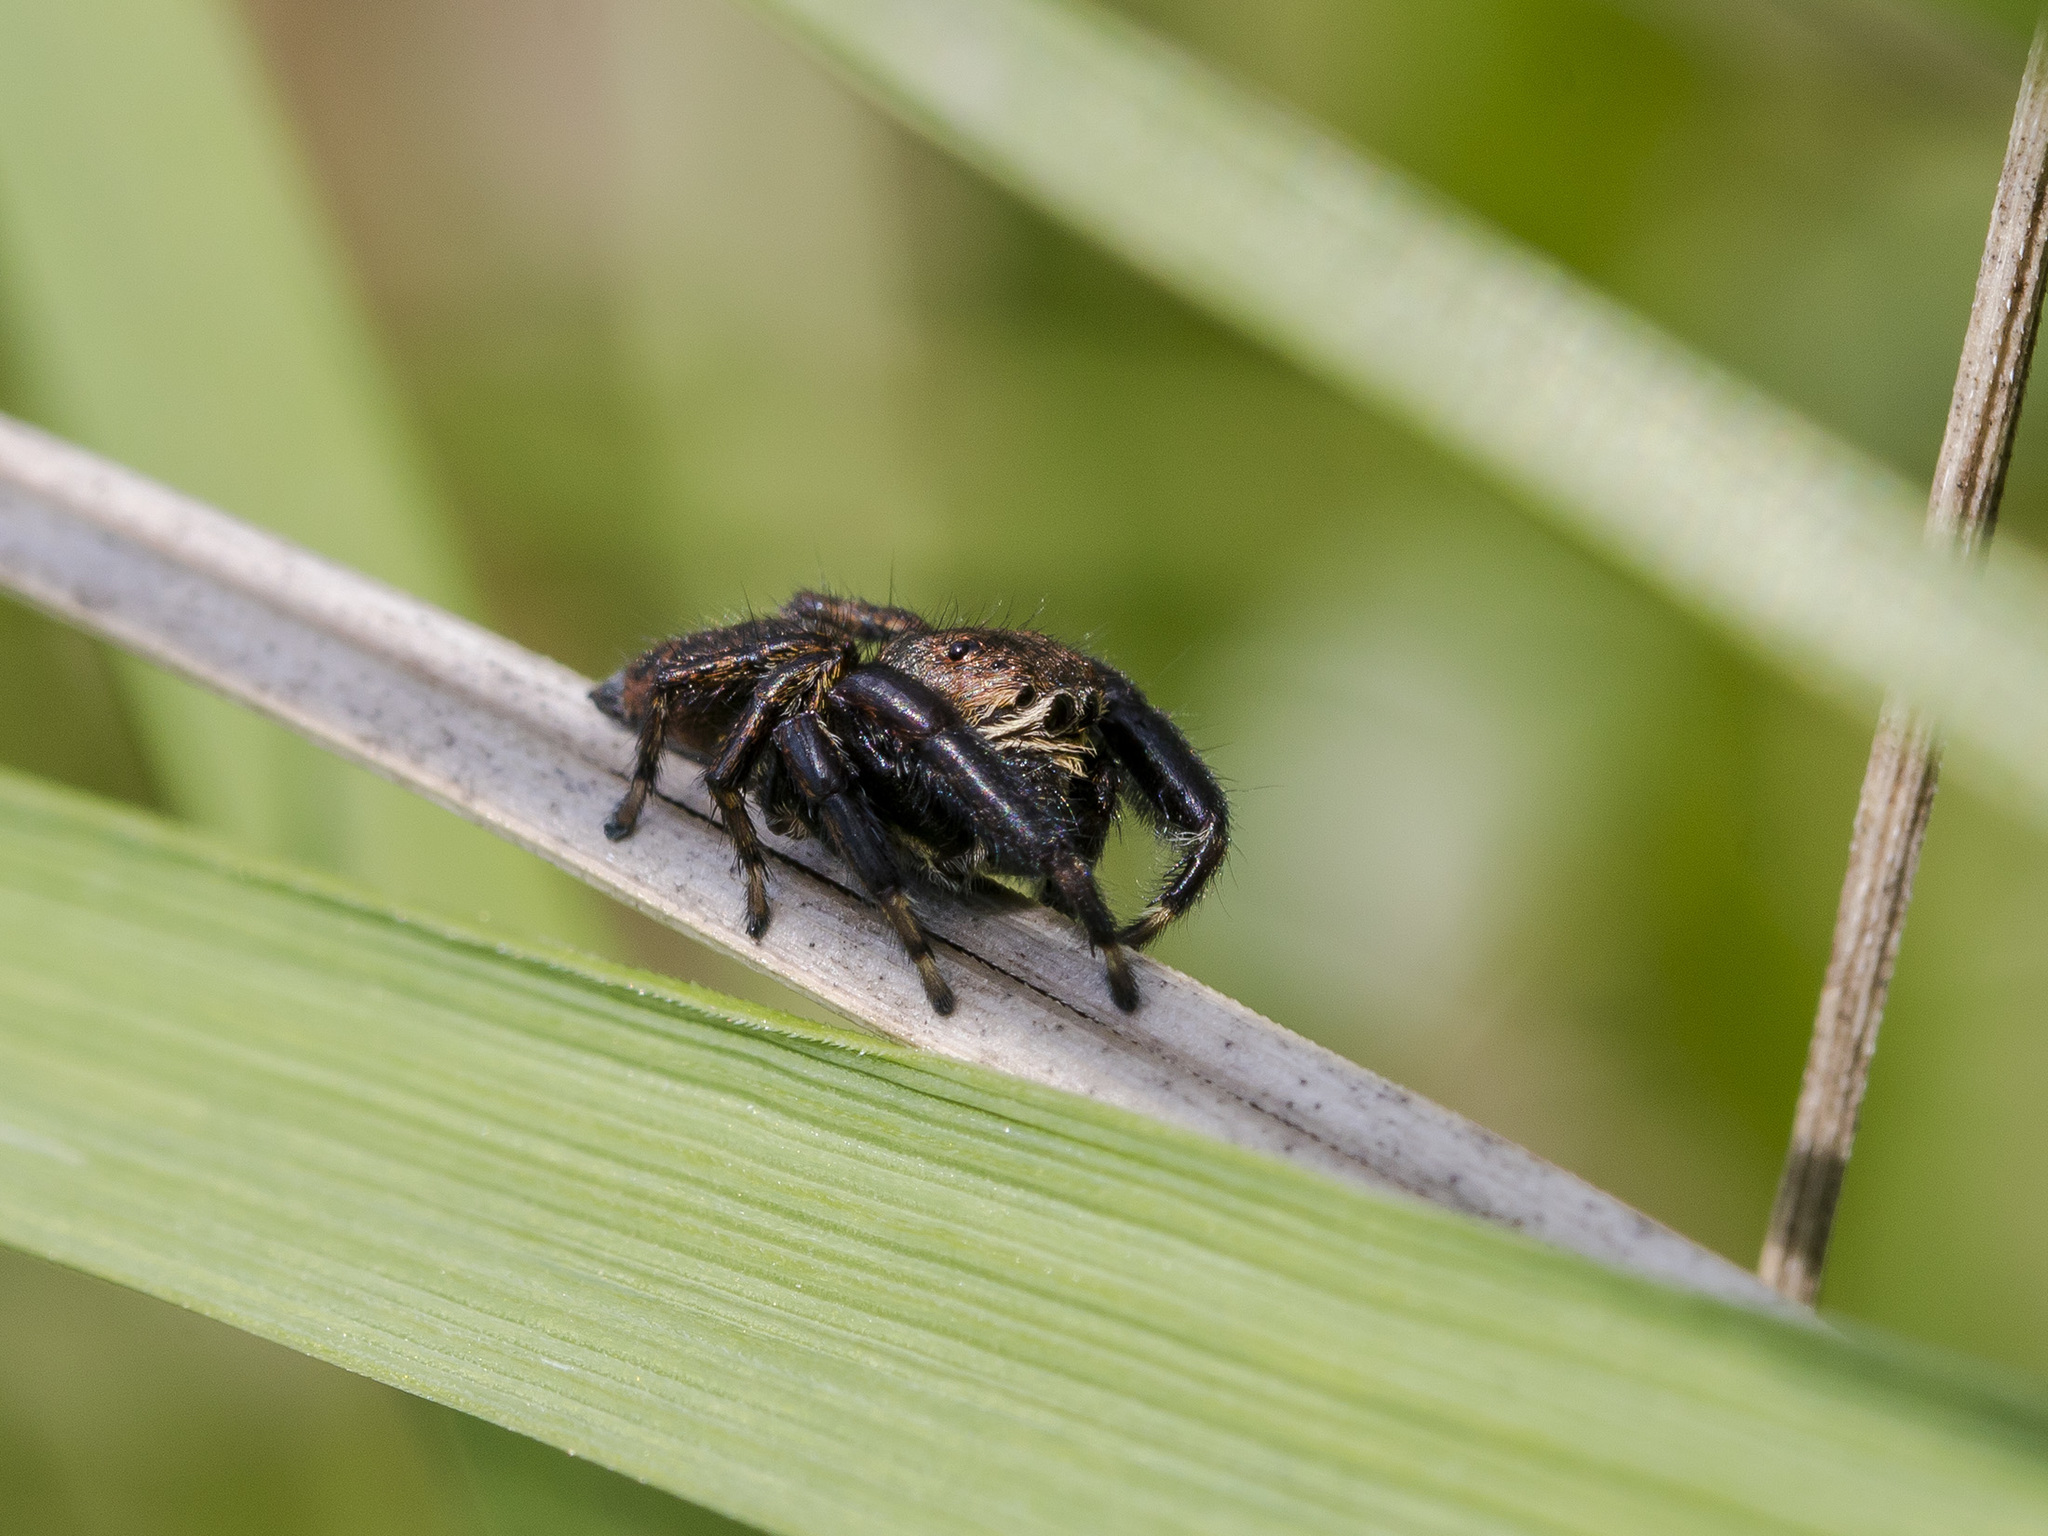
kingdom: Animalia
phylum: Arthropoda
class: Arachnida
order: Araneae
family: Salticidae
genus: Evarcha
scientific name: Evarcha arcuata
